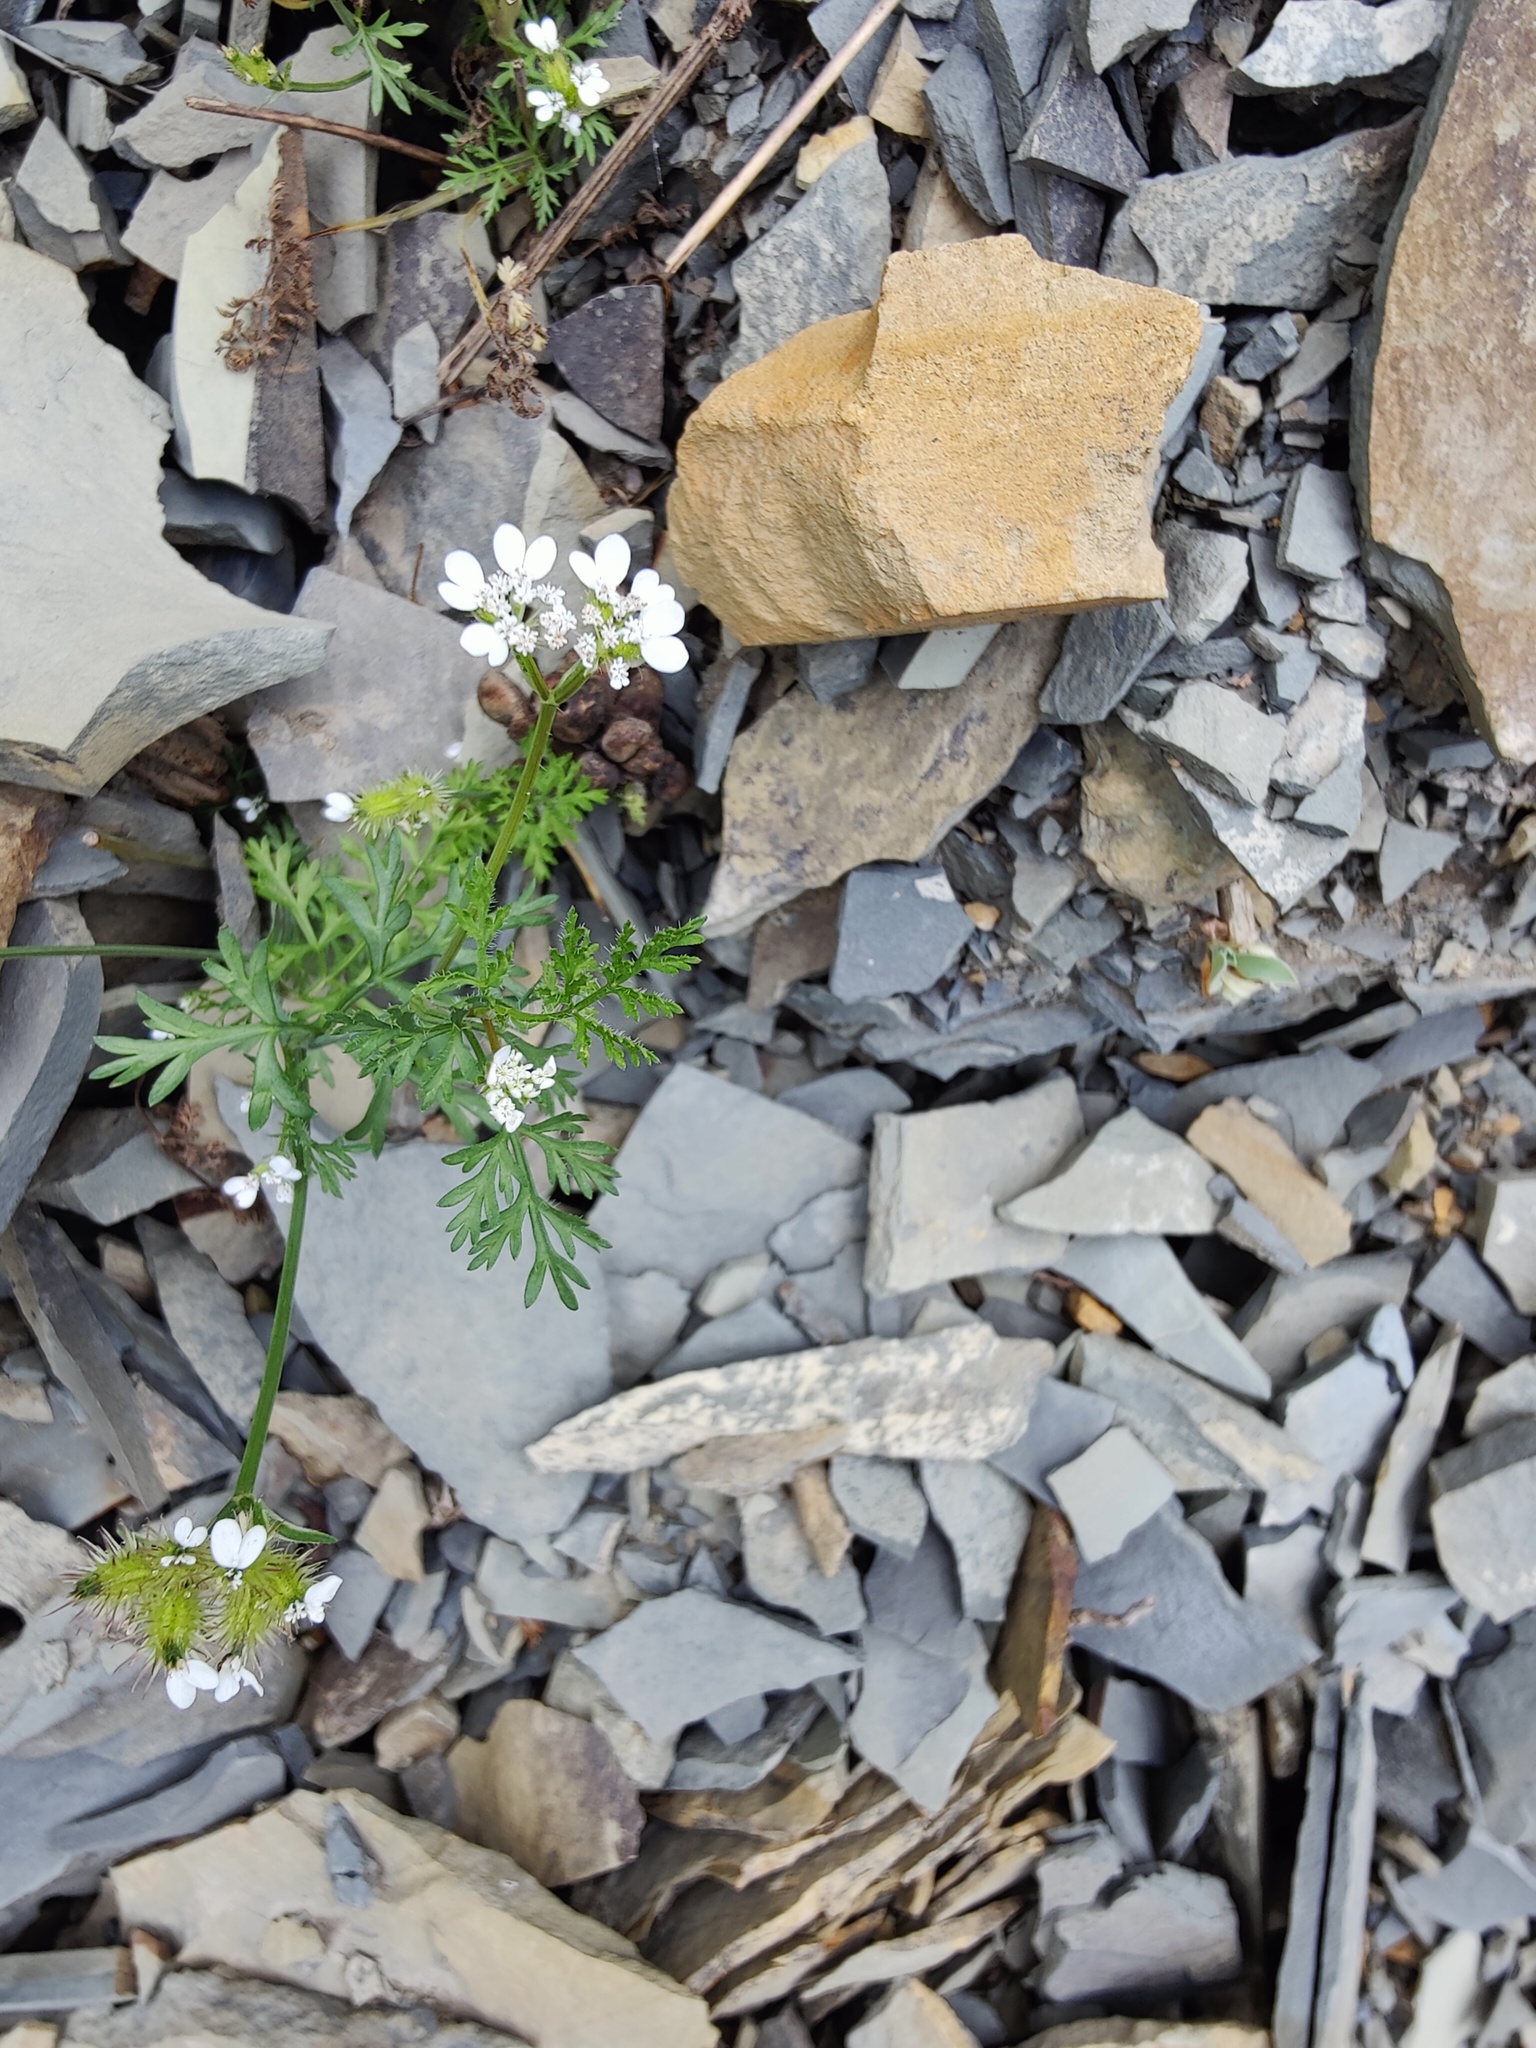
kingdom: Plantae
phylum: Tracheophyta
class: Magnoliopsida
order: Apiales
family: Apiaceae
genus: Orlaya
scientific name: Orlaya daucoides
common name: Flat-fruit orlaya
